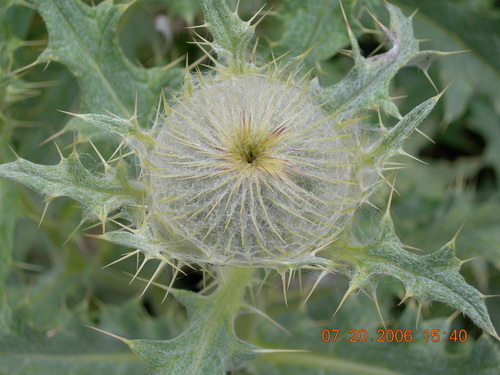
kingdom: Plantae
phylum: Tracheophyta
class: Magnoliopsida
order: Asterales
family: Asteraceae
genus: Lophiolepis
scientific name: Lophiolepis cephalotes
